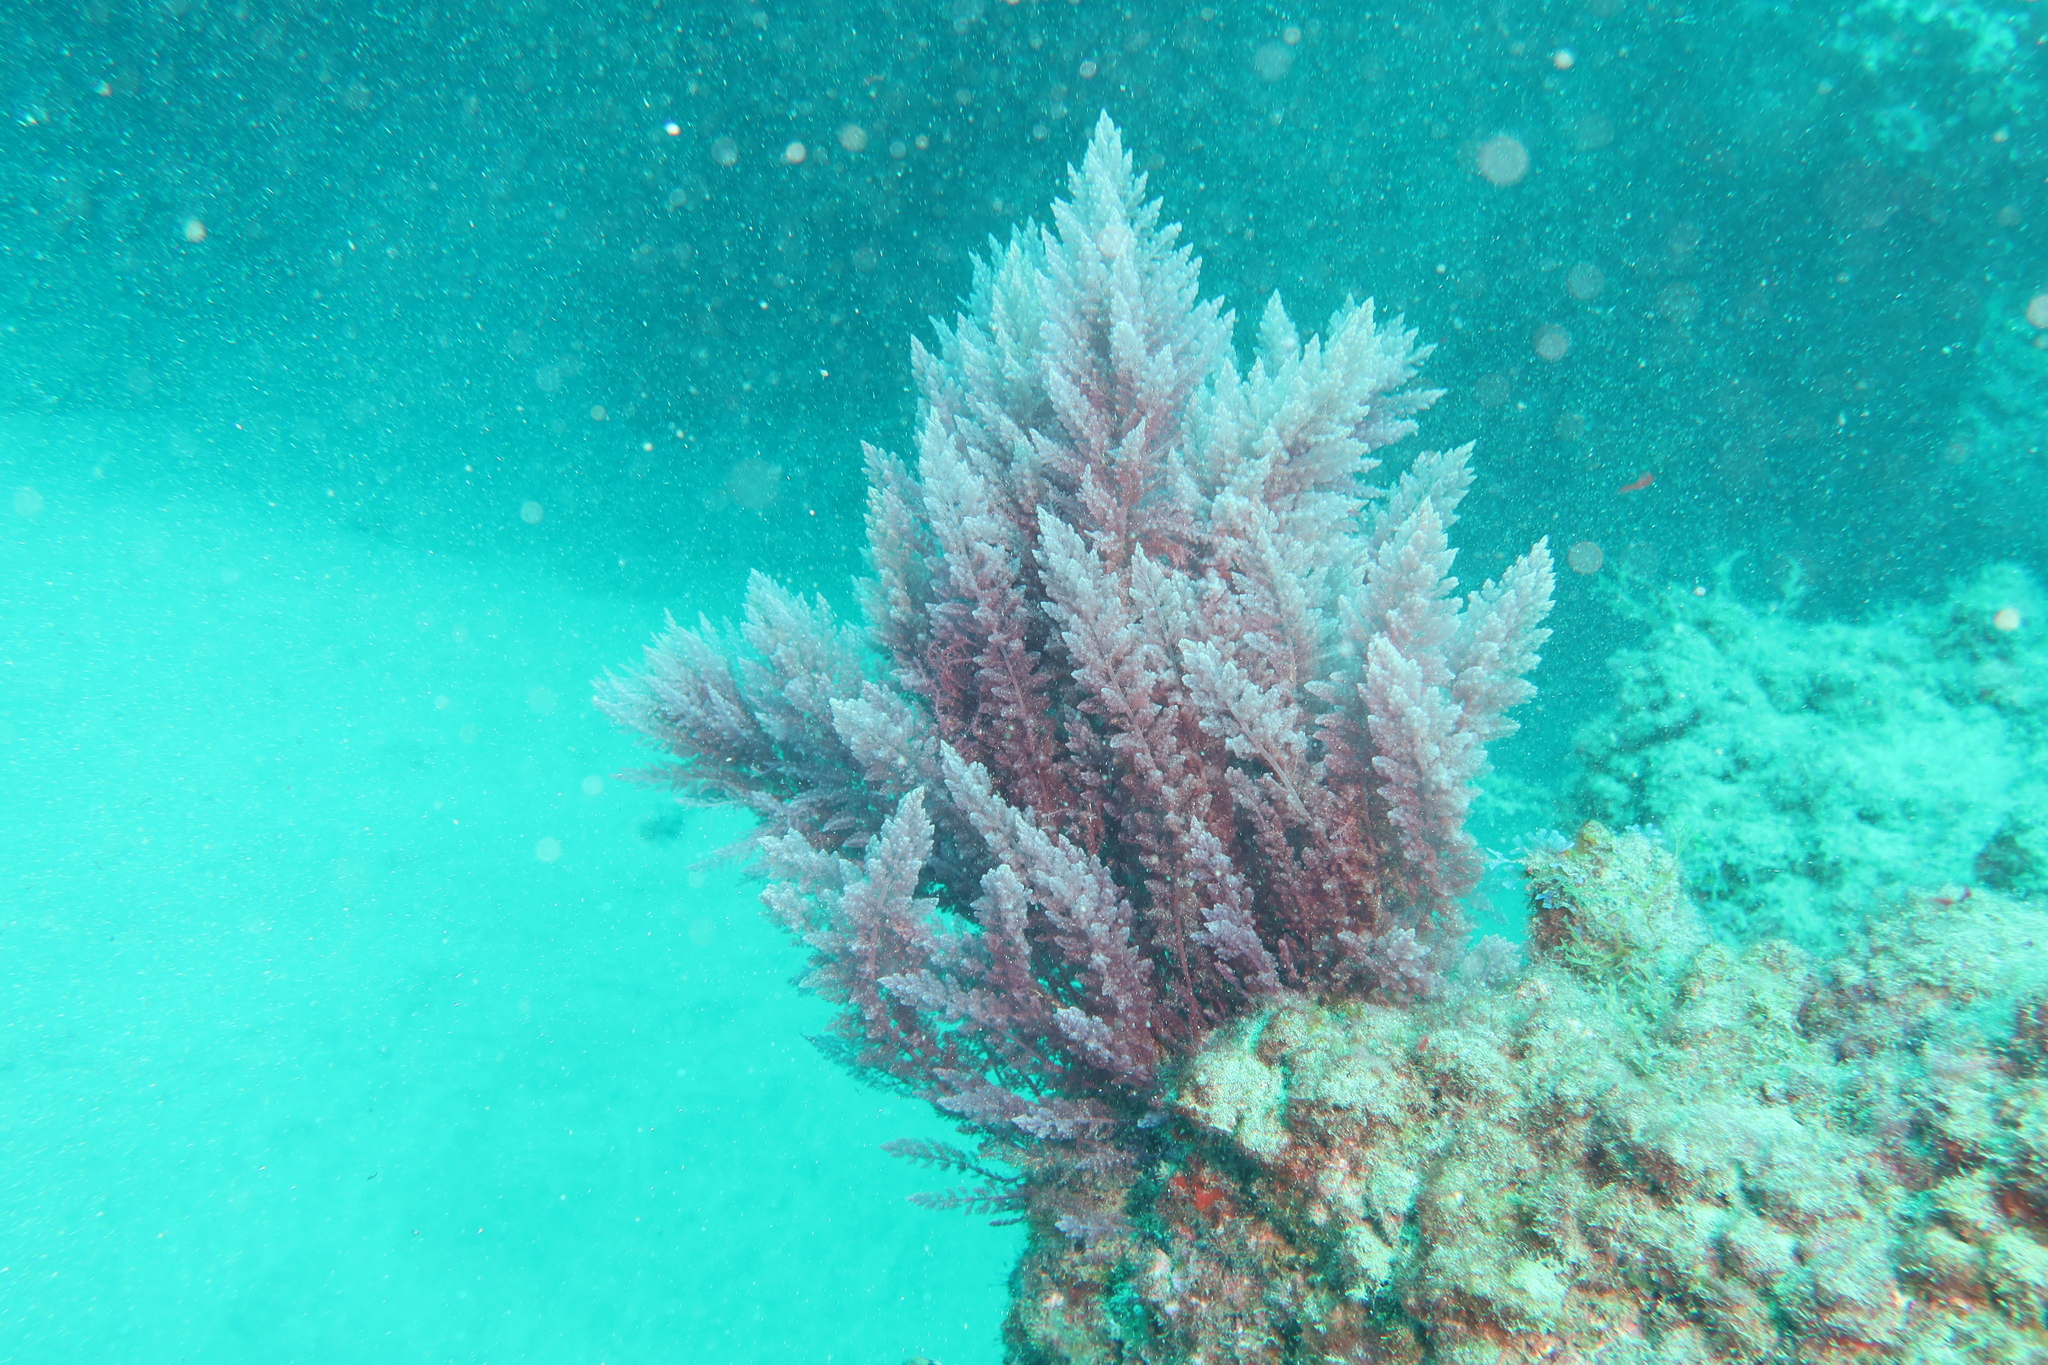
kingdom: Plantae
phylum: Rhodophyta
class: Florideophyceae
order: Bonnemaisoniales
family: Bonnemaisoniaceae
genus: Asparagopsis
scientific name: Asparagopsis taxiformis
